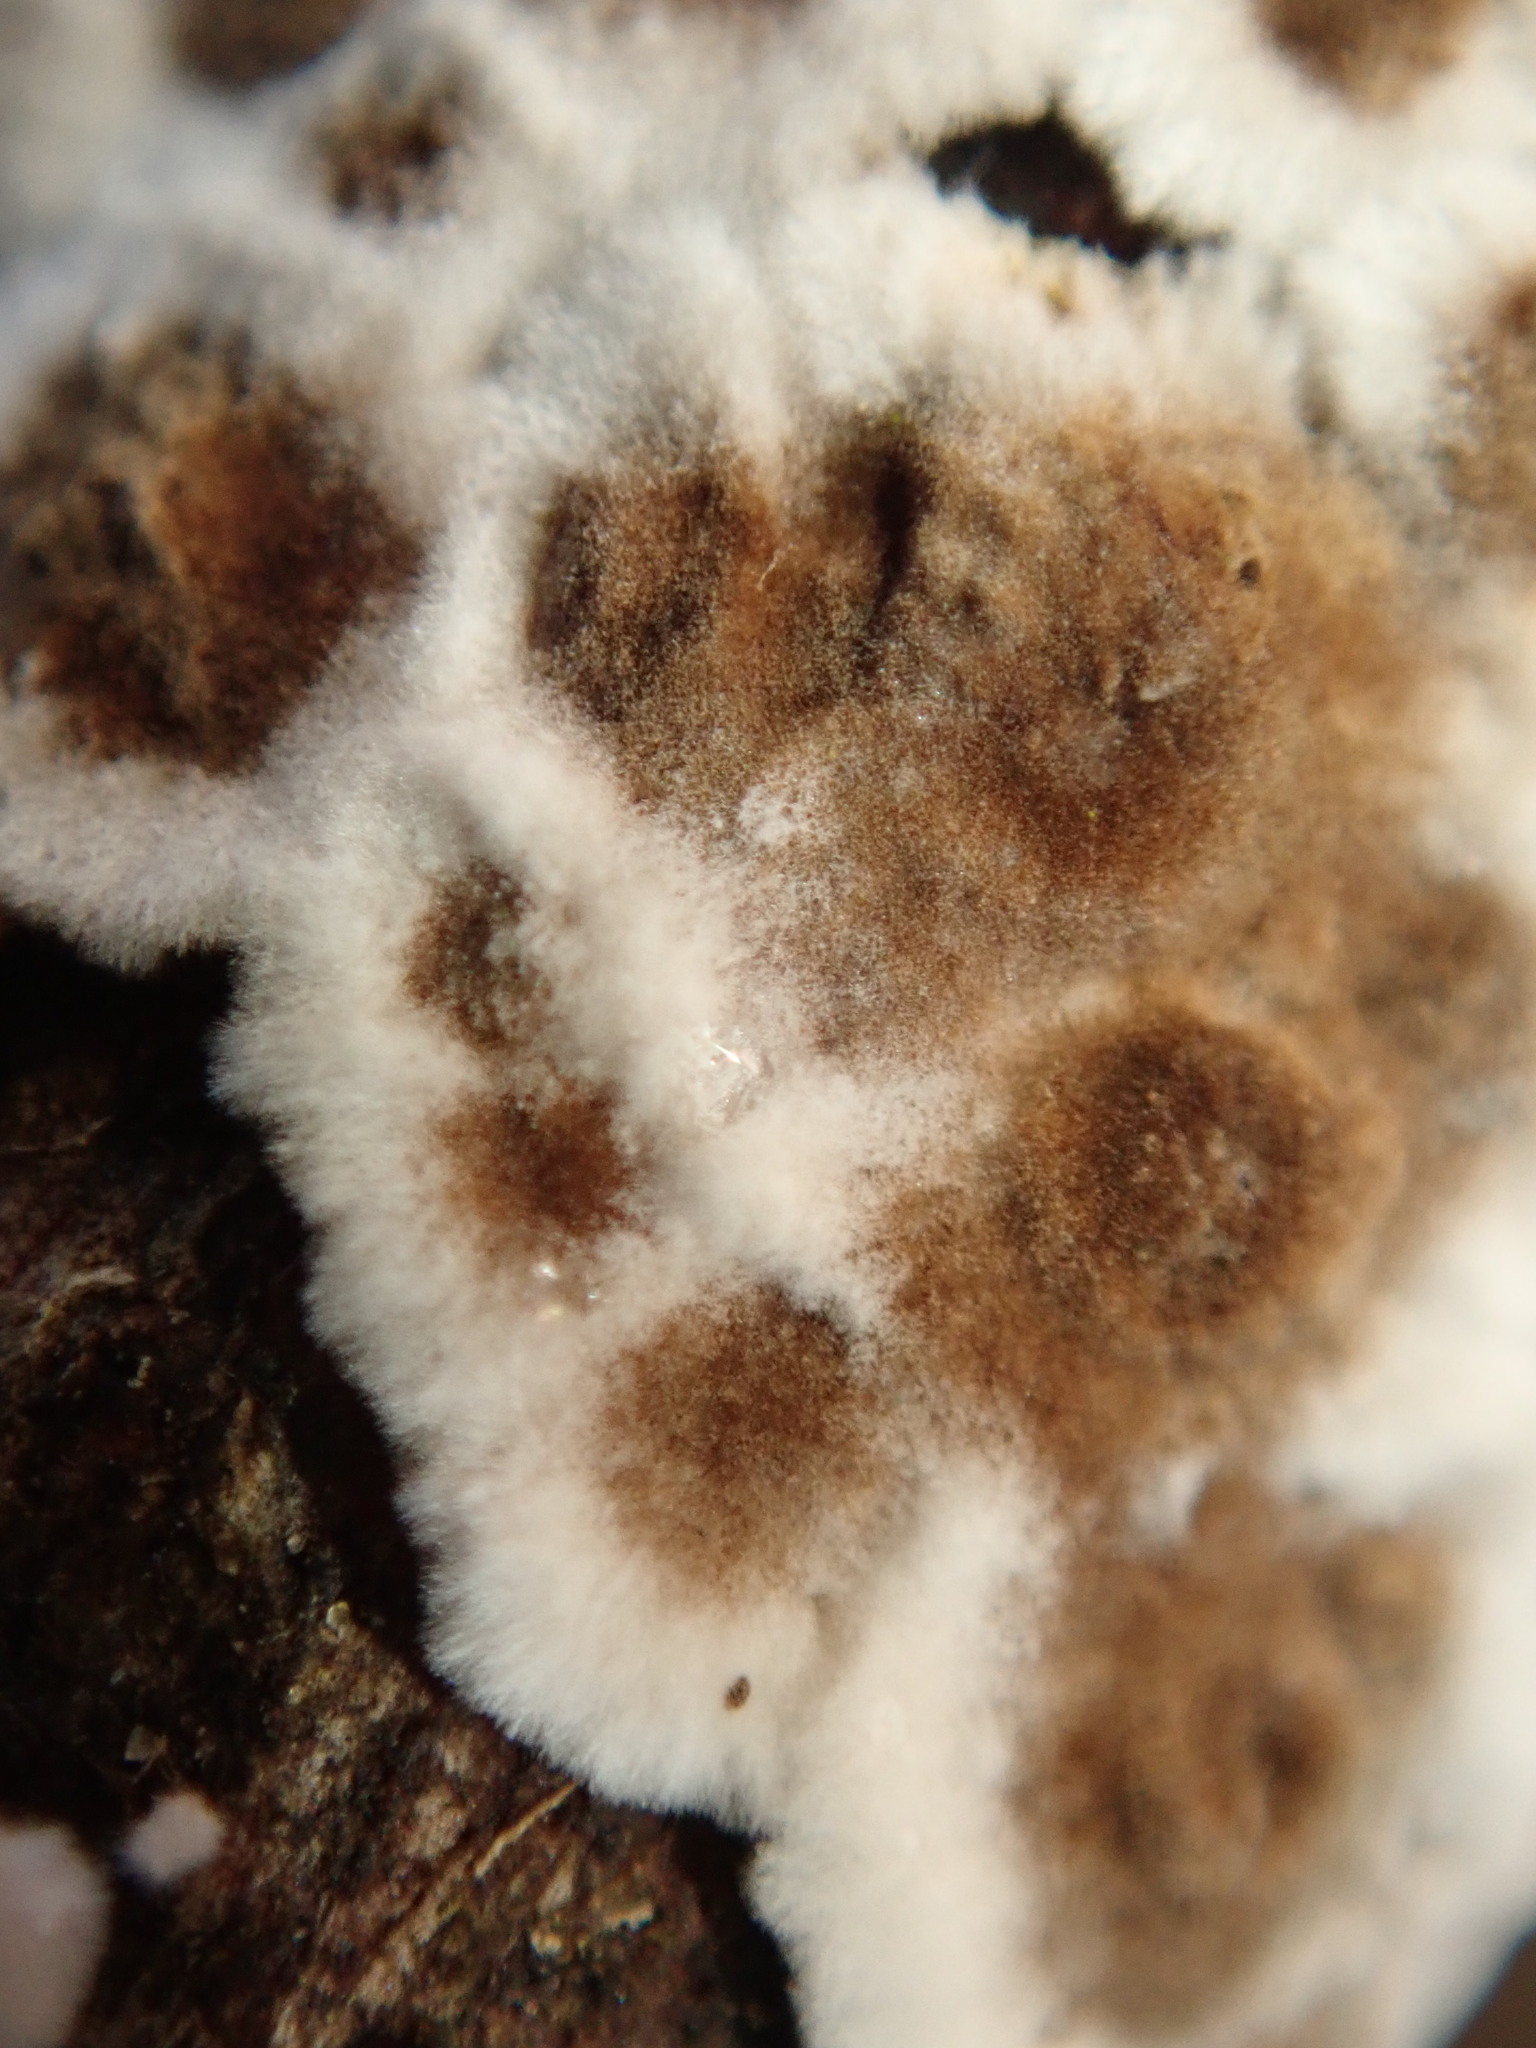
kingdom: Fungi
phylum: Basidiomycota
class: Agaricomycetes
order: Russulales
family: Peniophoraceae
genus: Peniophora
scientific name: Peniophora albobadia
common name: Giraffe spots
